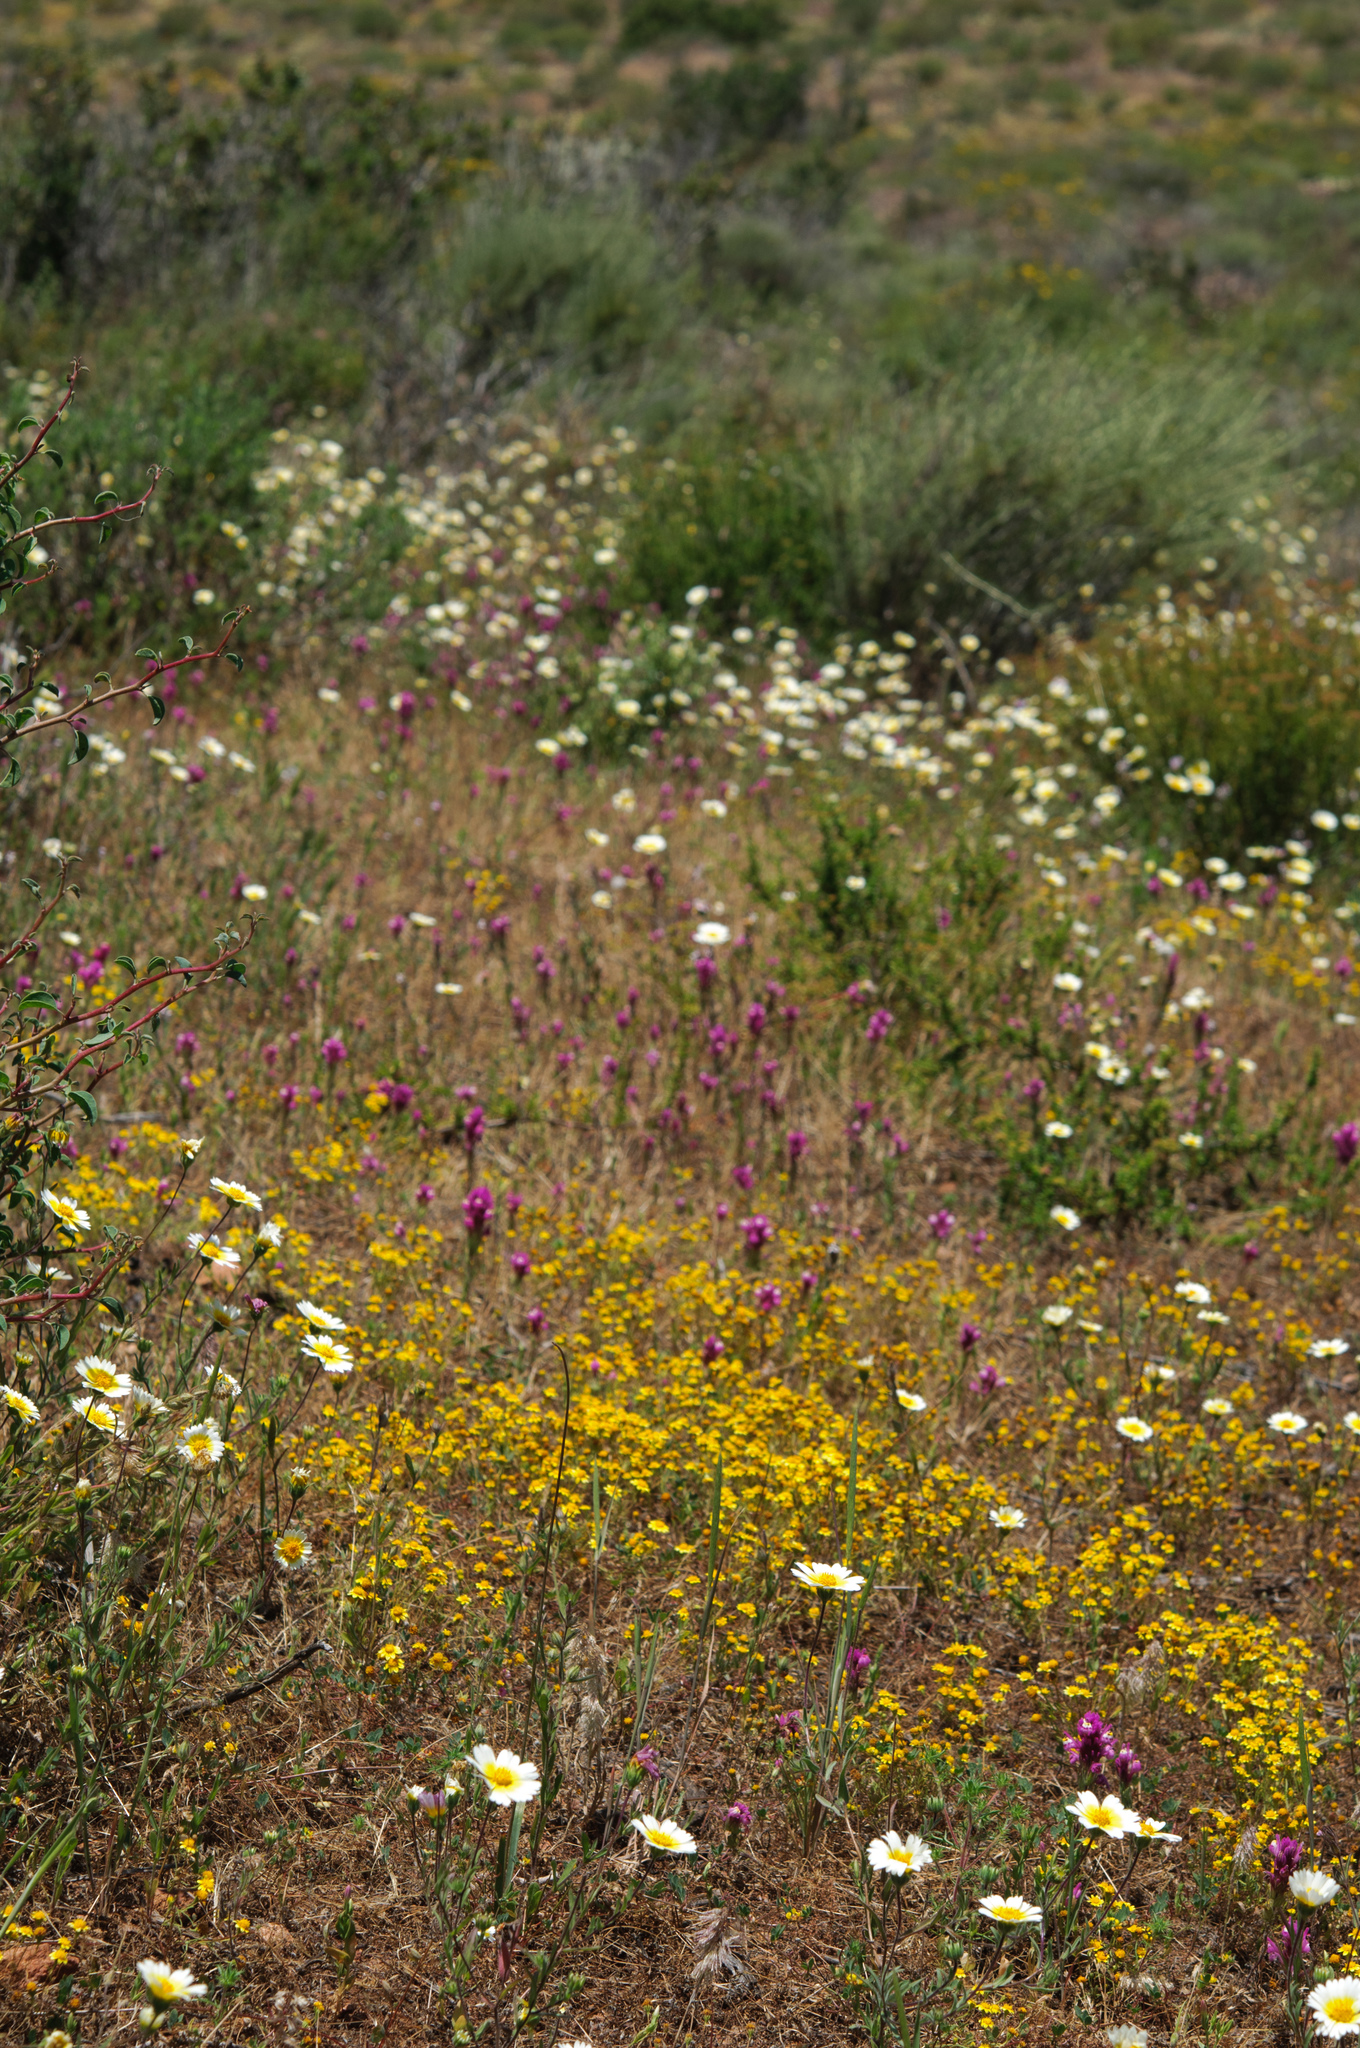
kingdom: Plantae
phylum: Tracheophyta
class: Magnoliopsida
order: Asterales
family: Asteraceae
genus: Layia
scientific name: Layia platyglossa
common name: Tidy-tips
